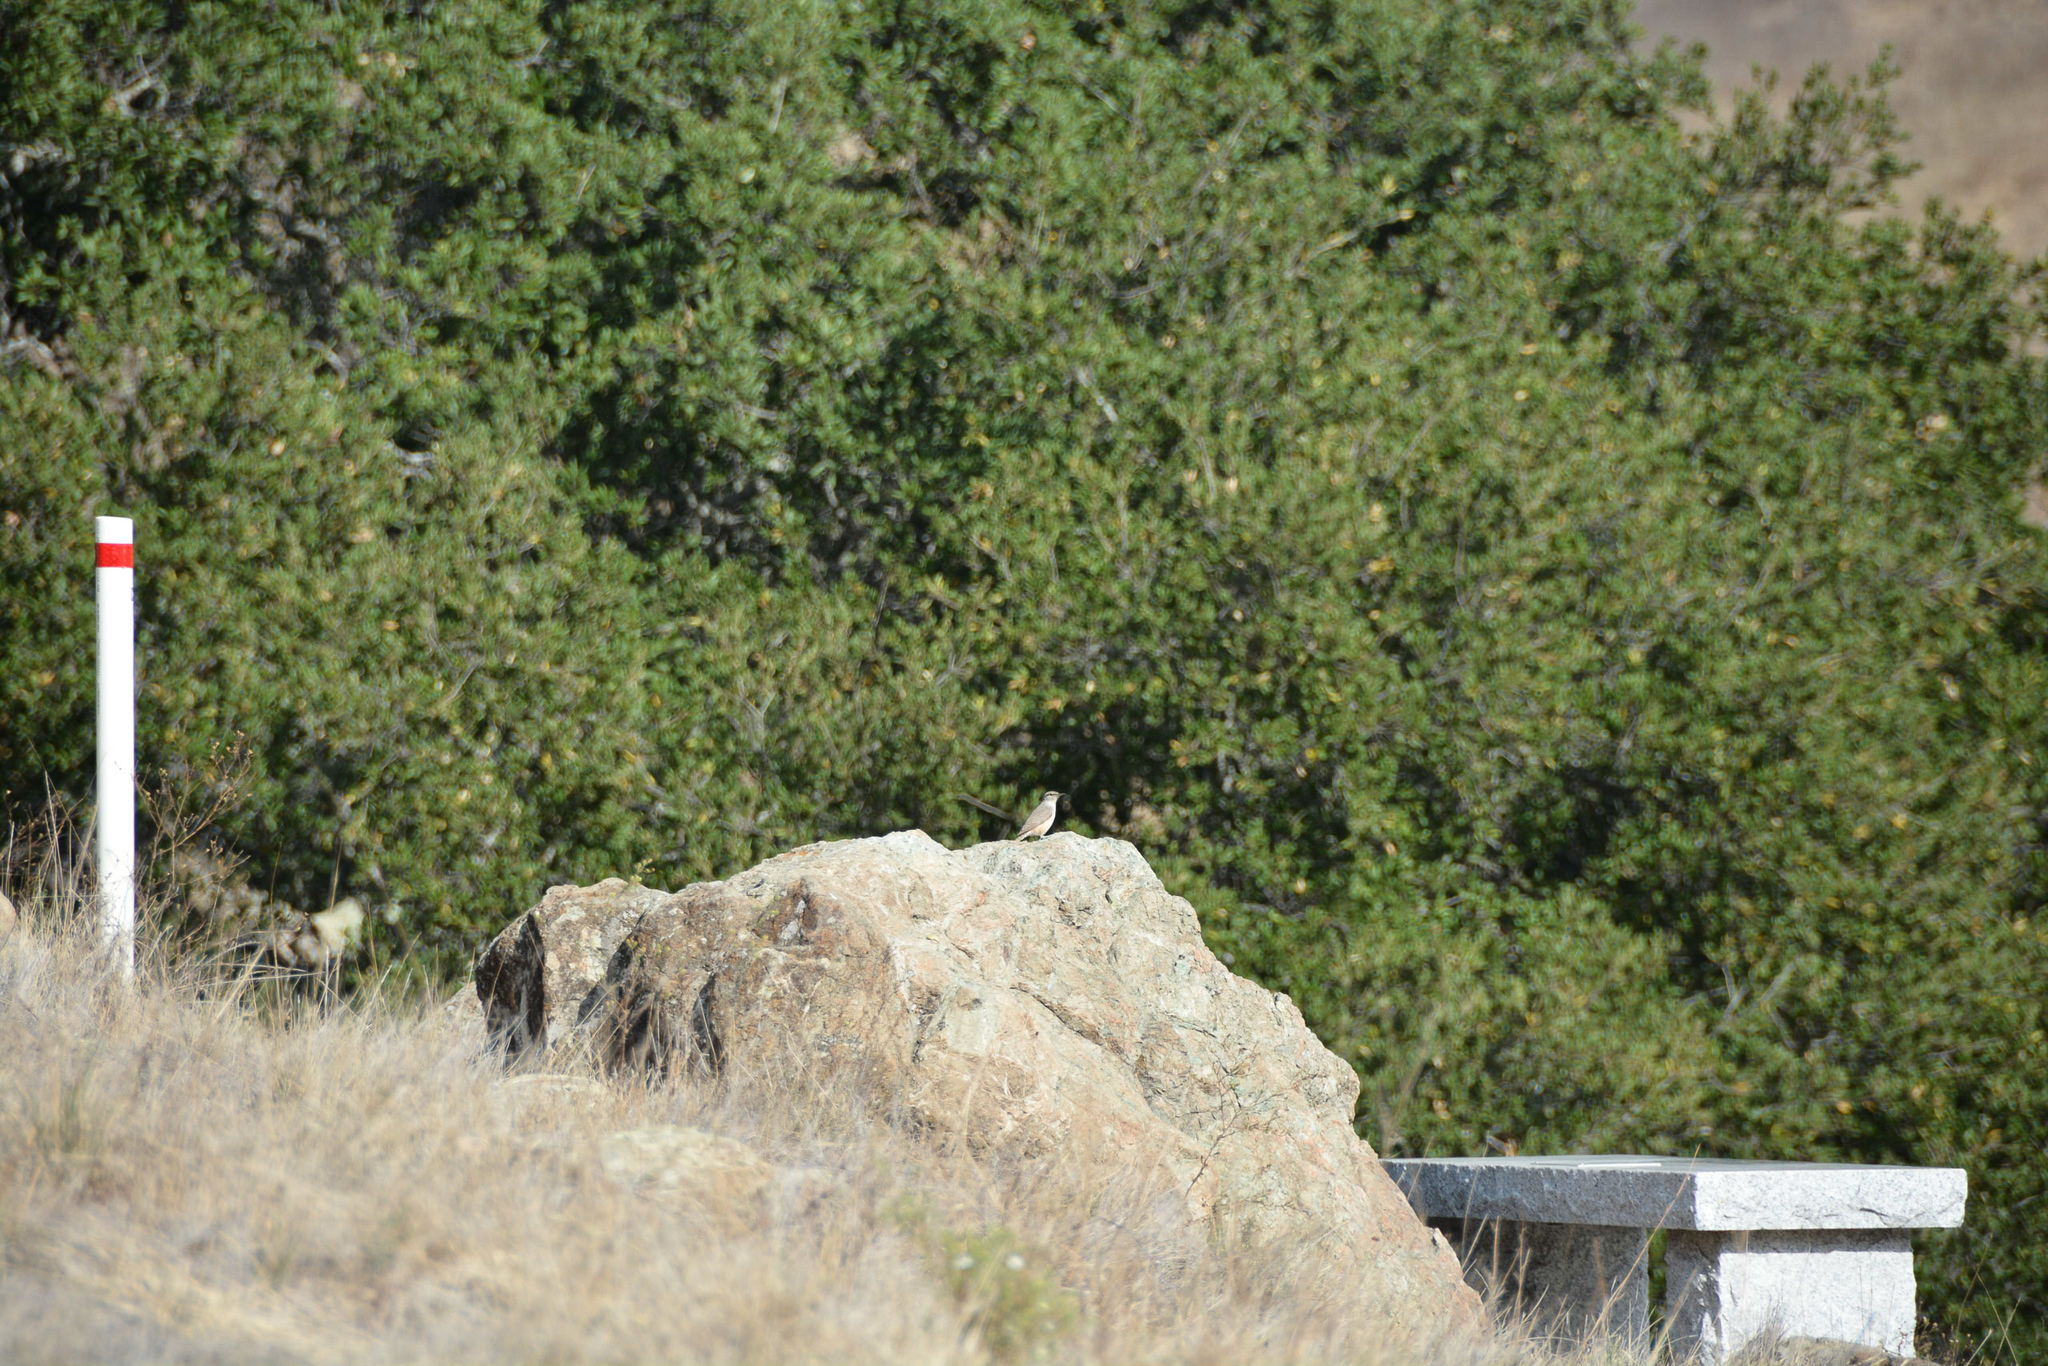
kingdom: Animalia
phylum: Chordata
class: Aves
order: Passeriformes
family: Troglodytidae
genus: Salpinctes
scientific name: Salpinctes obsoletus
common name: Rock wren
